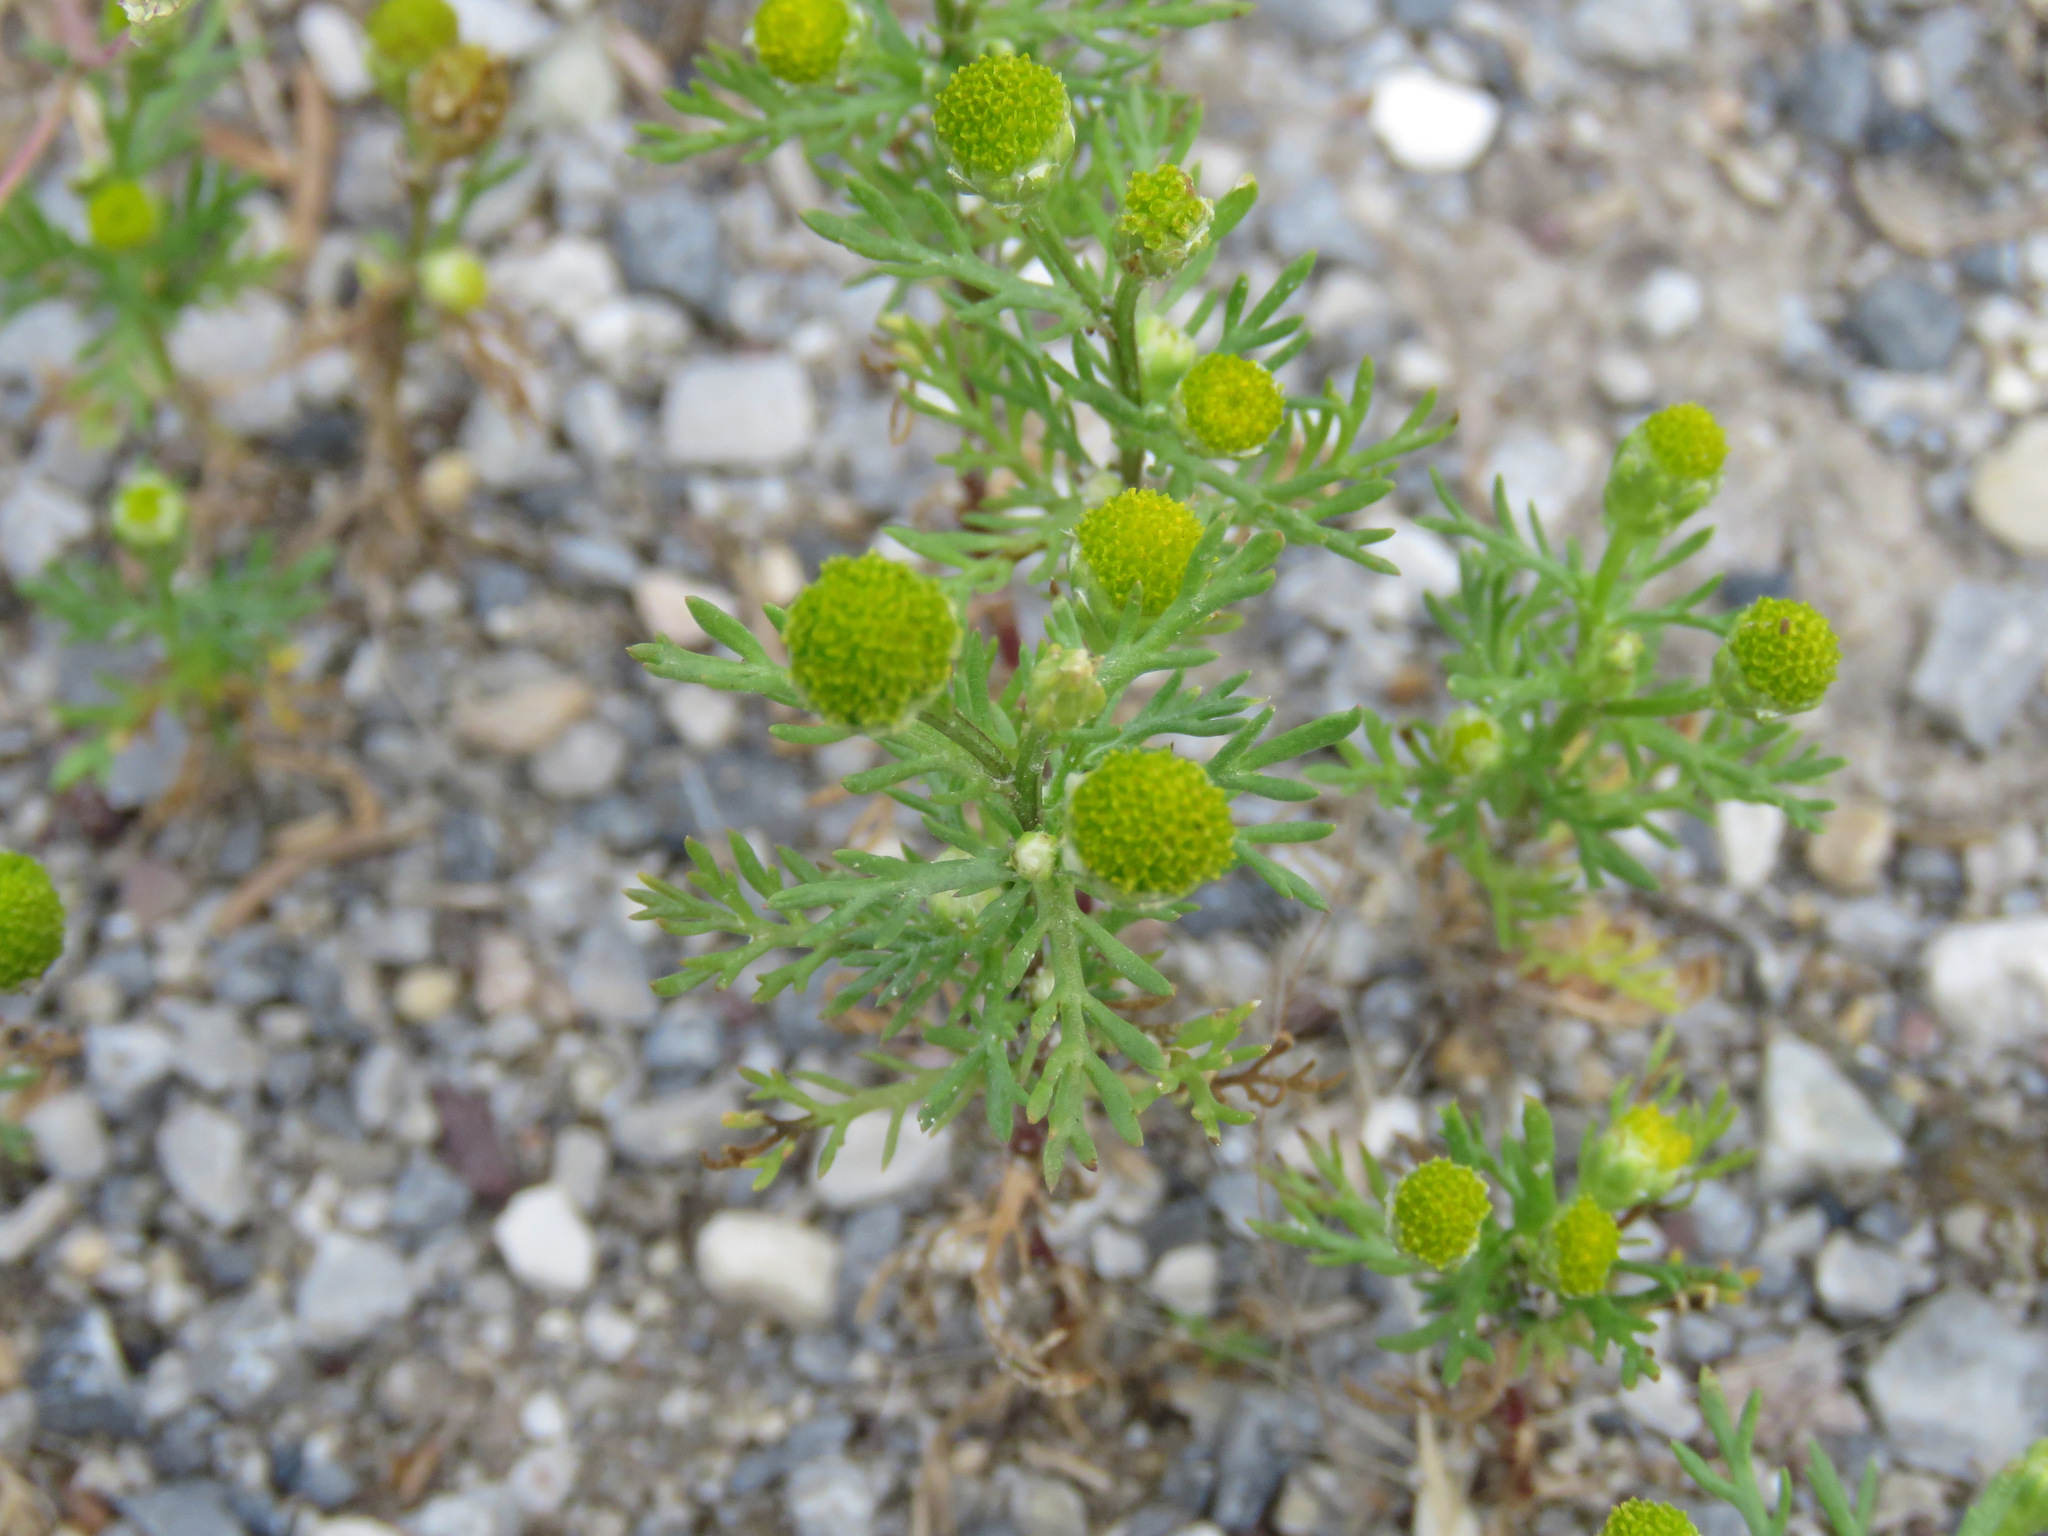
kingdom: Plantae
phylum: Tracheophyta
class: Magnoliopsida
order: Asterales
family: Asteraceae
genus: Matricaria
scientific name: Matricaria discoidea
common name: Disc mayweed
